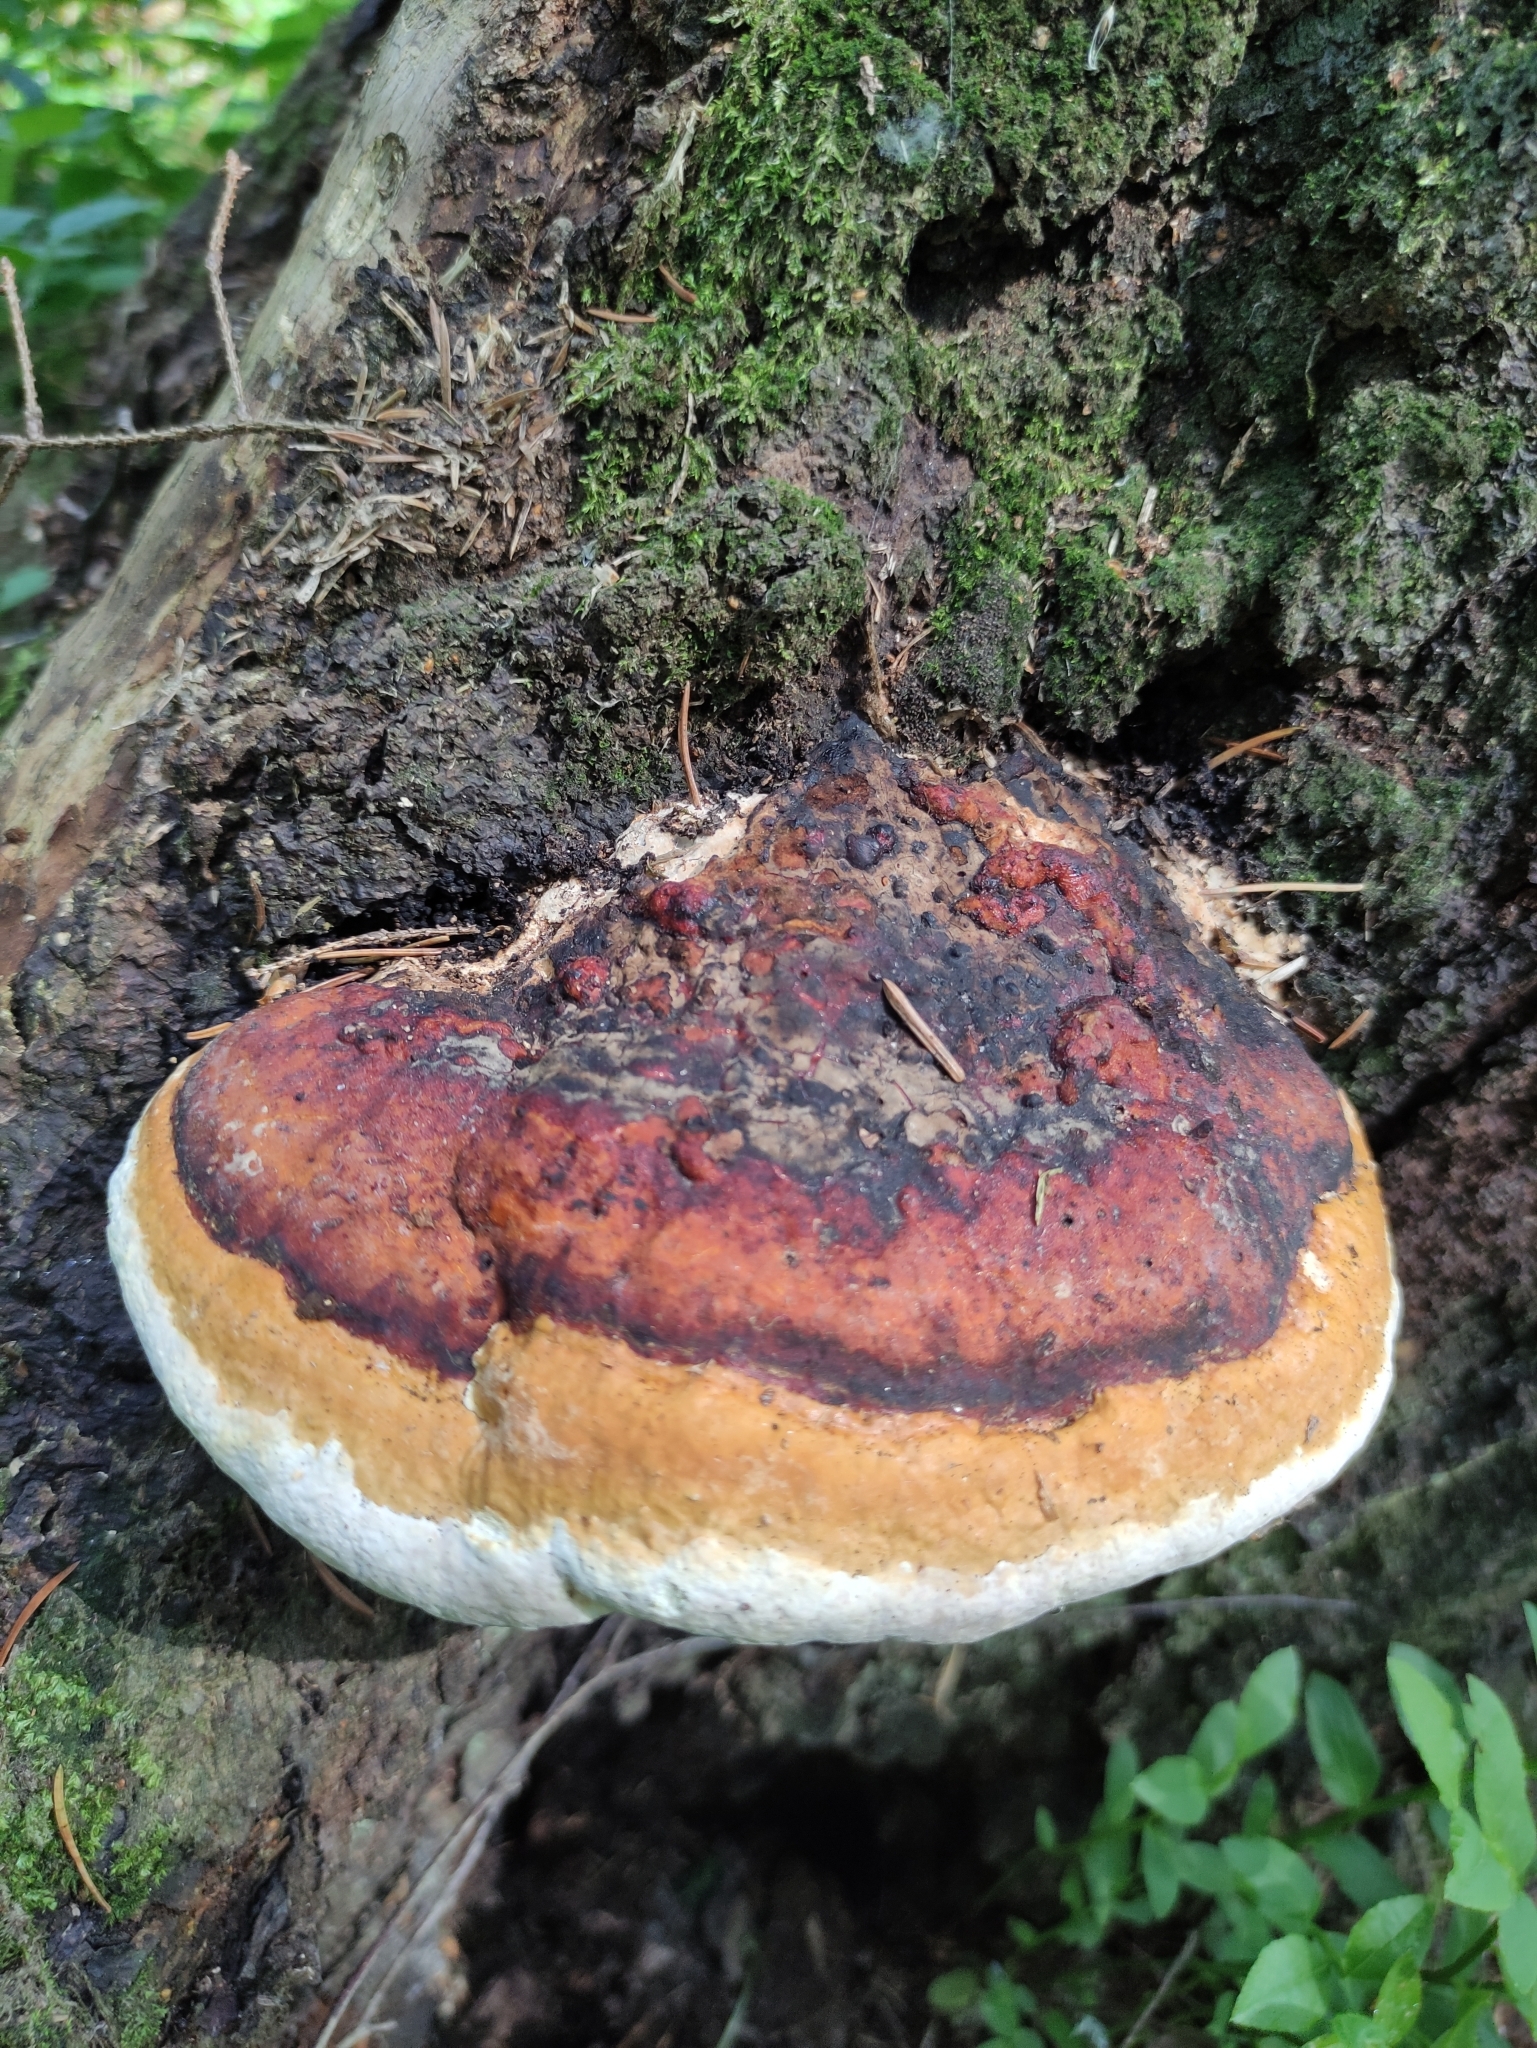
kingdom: Fungi
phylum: Basidiomycota
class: Agaricomycetes
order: Polyporales
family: Fomitopsidaceae
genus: Fomitopsis
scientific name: Fomitopsis pinicola
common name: Red-belted bracket
